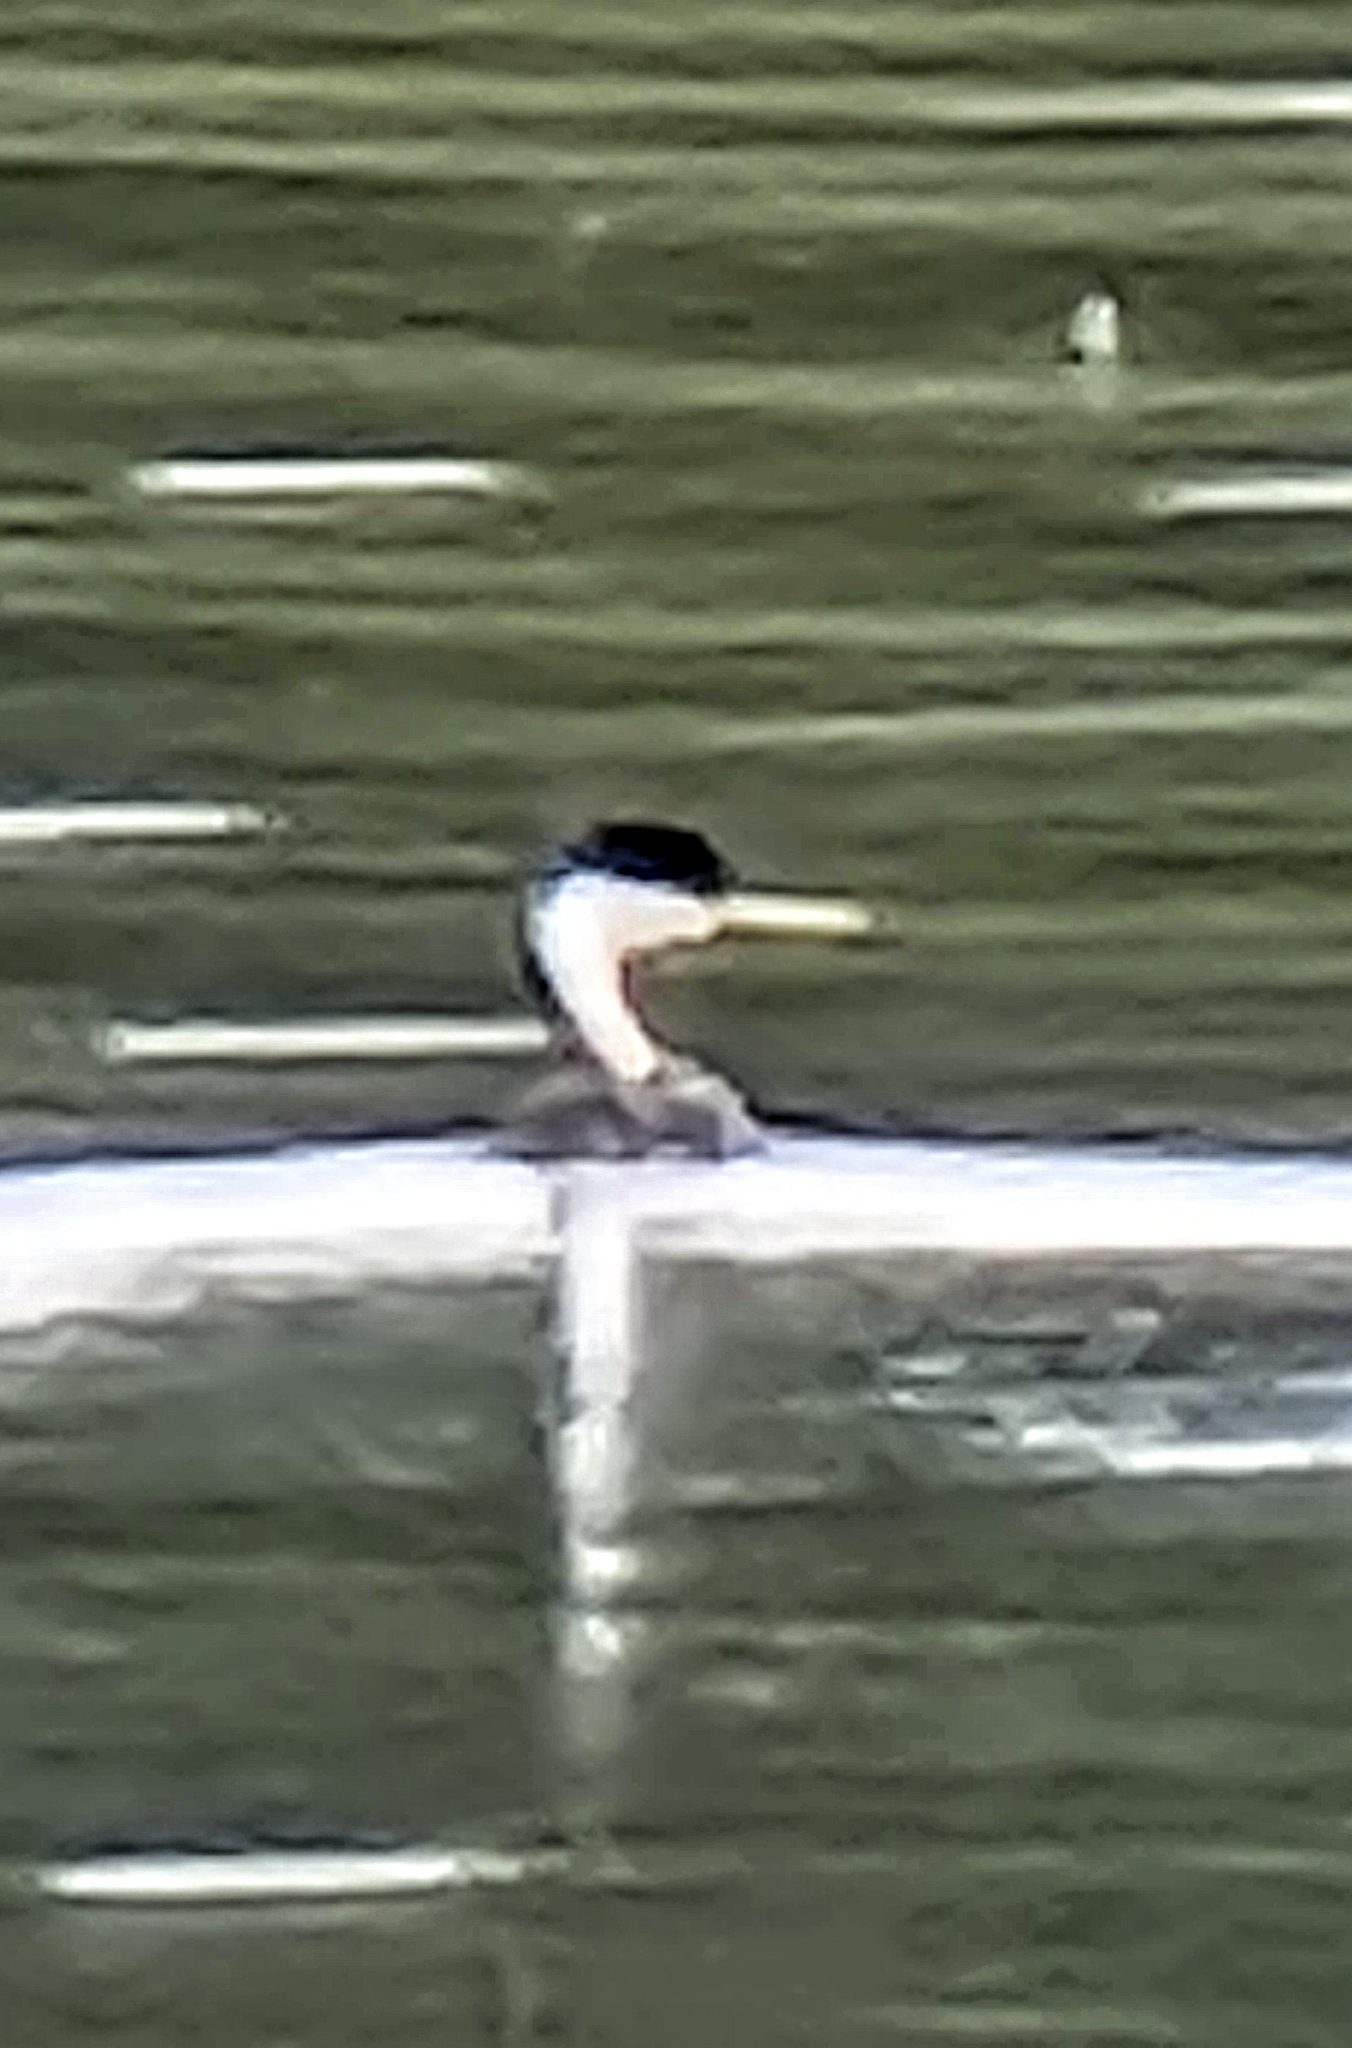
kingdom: Animalia
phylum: Chordata
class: Aves
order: Podicipediformes
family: Podicipedidae
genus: Aechmophorus
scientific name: Aechmophorus occidentalis
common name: Western grebe
